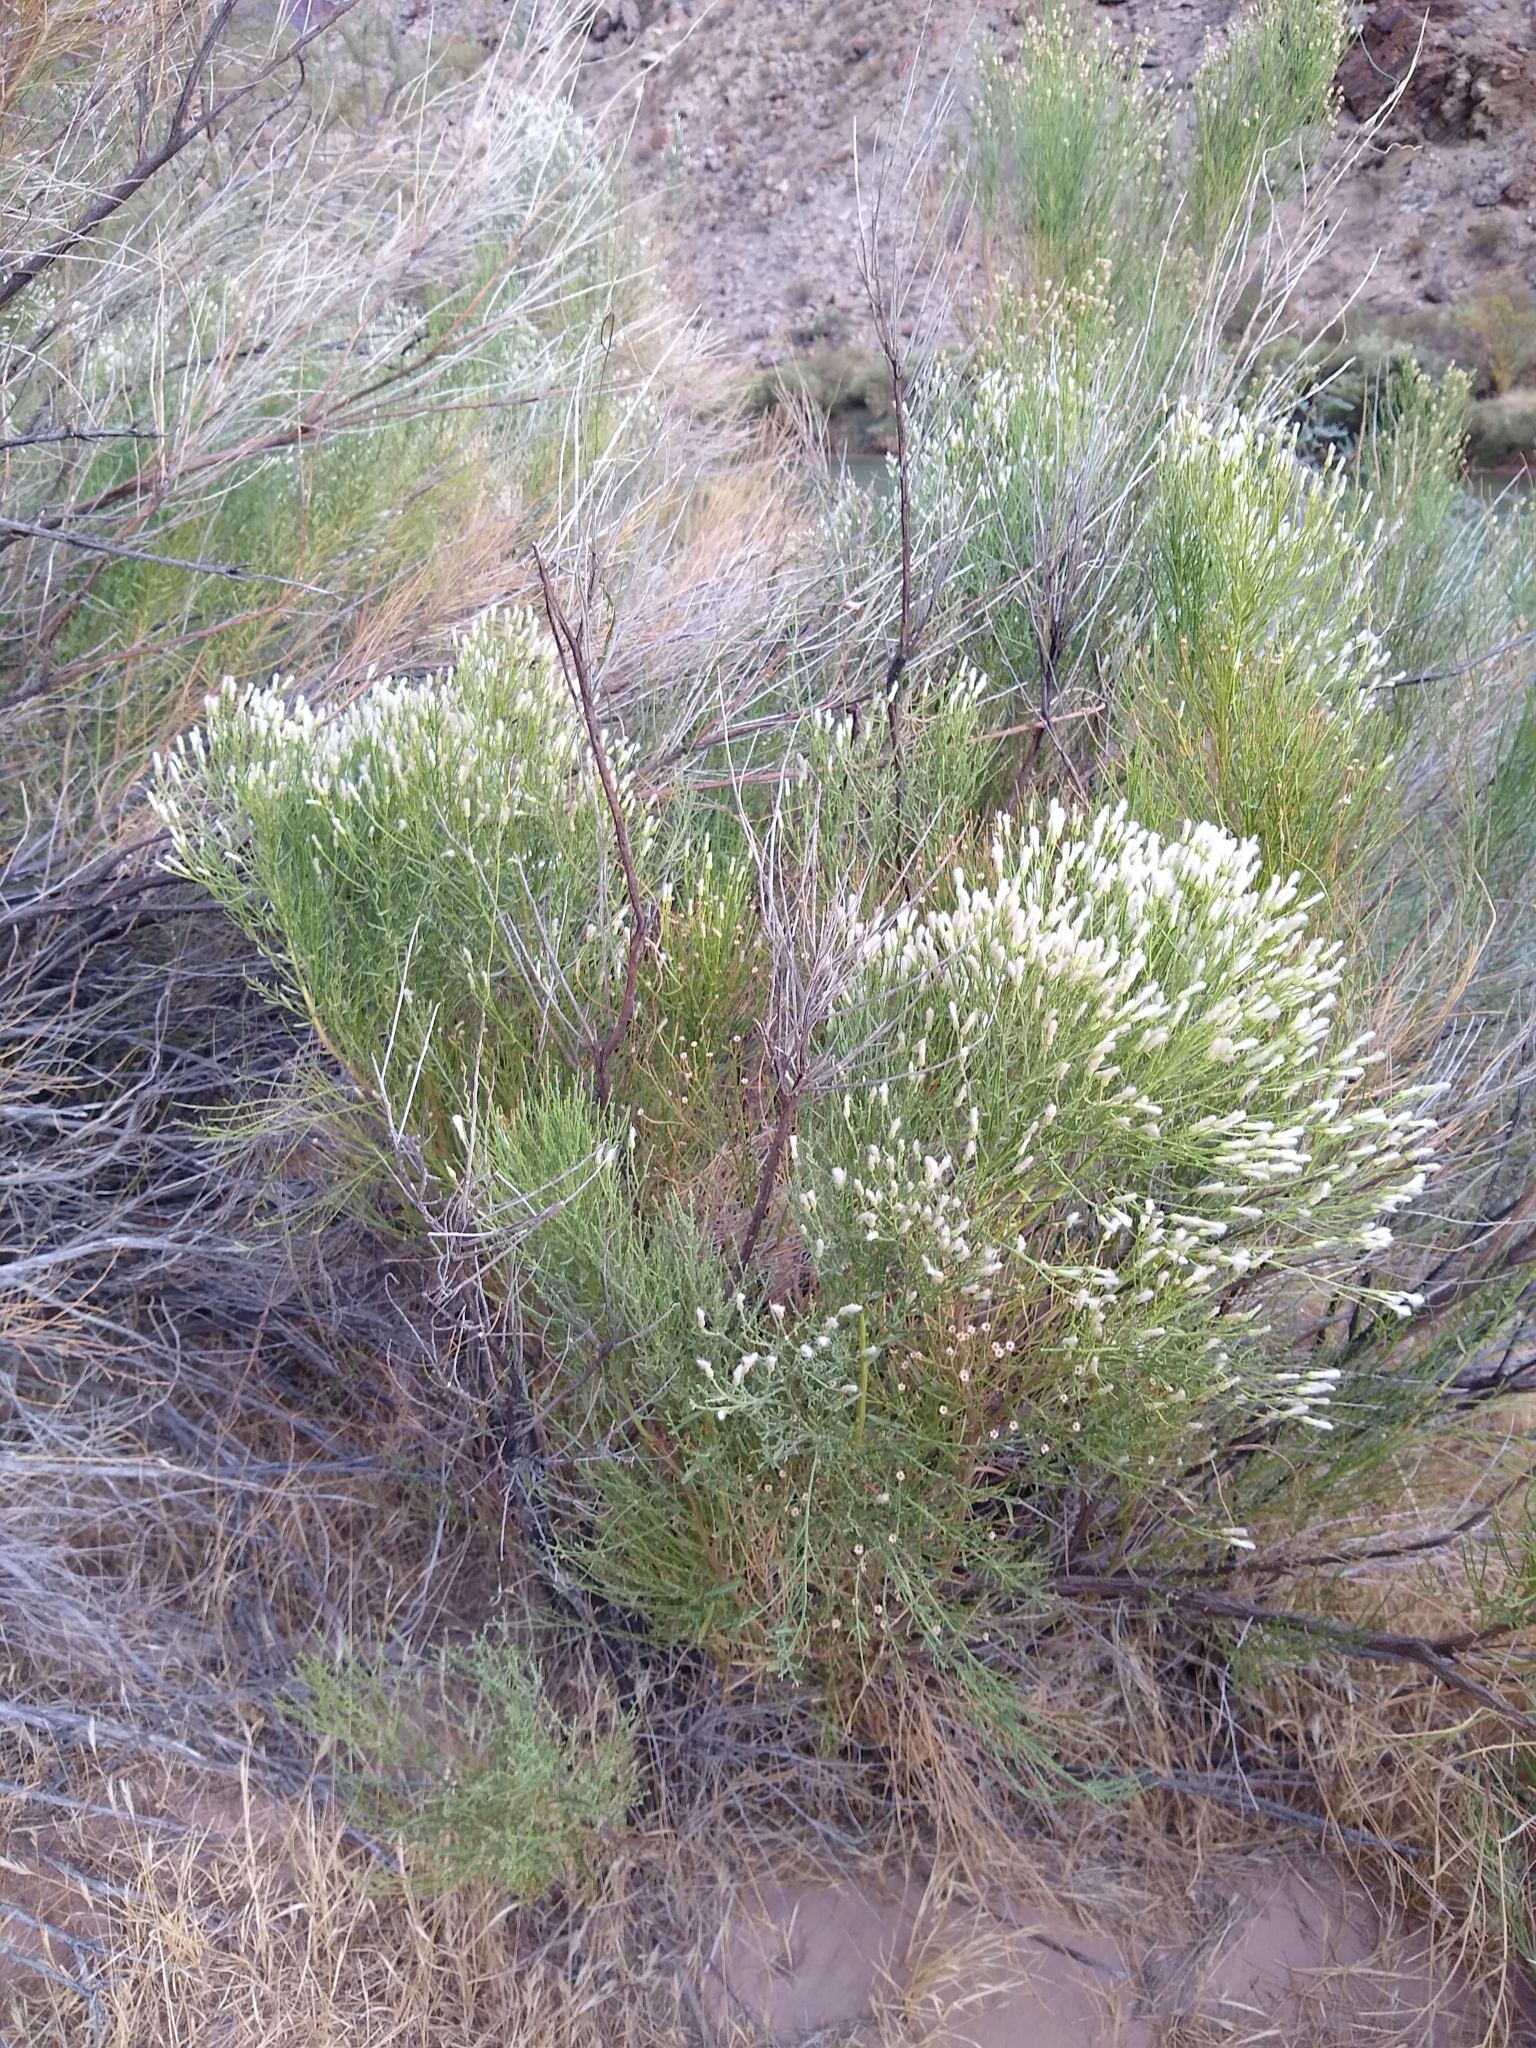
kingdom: Plantae
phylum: Tracheophyta
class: Magnoliopsida
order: Asterales
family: Asteraceae
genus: Baccharis
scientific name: Baccharis sarothroides
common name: Desert-broom
